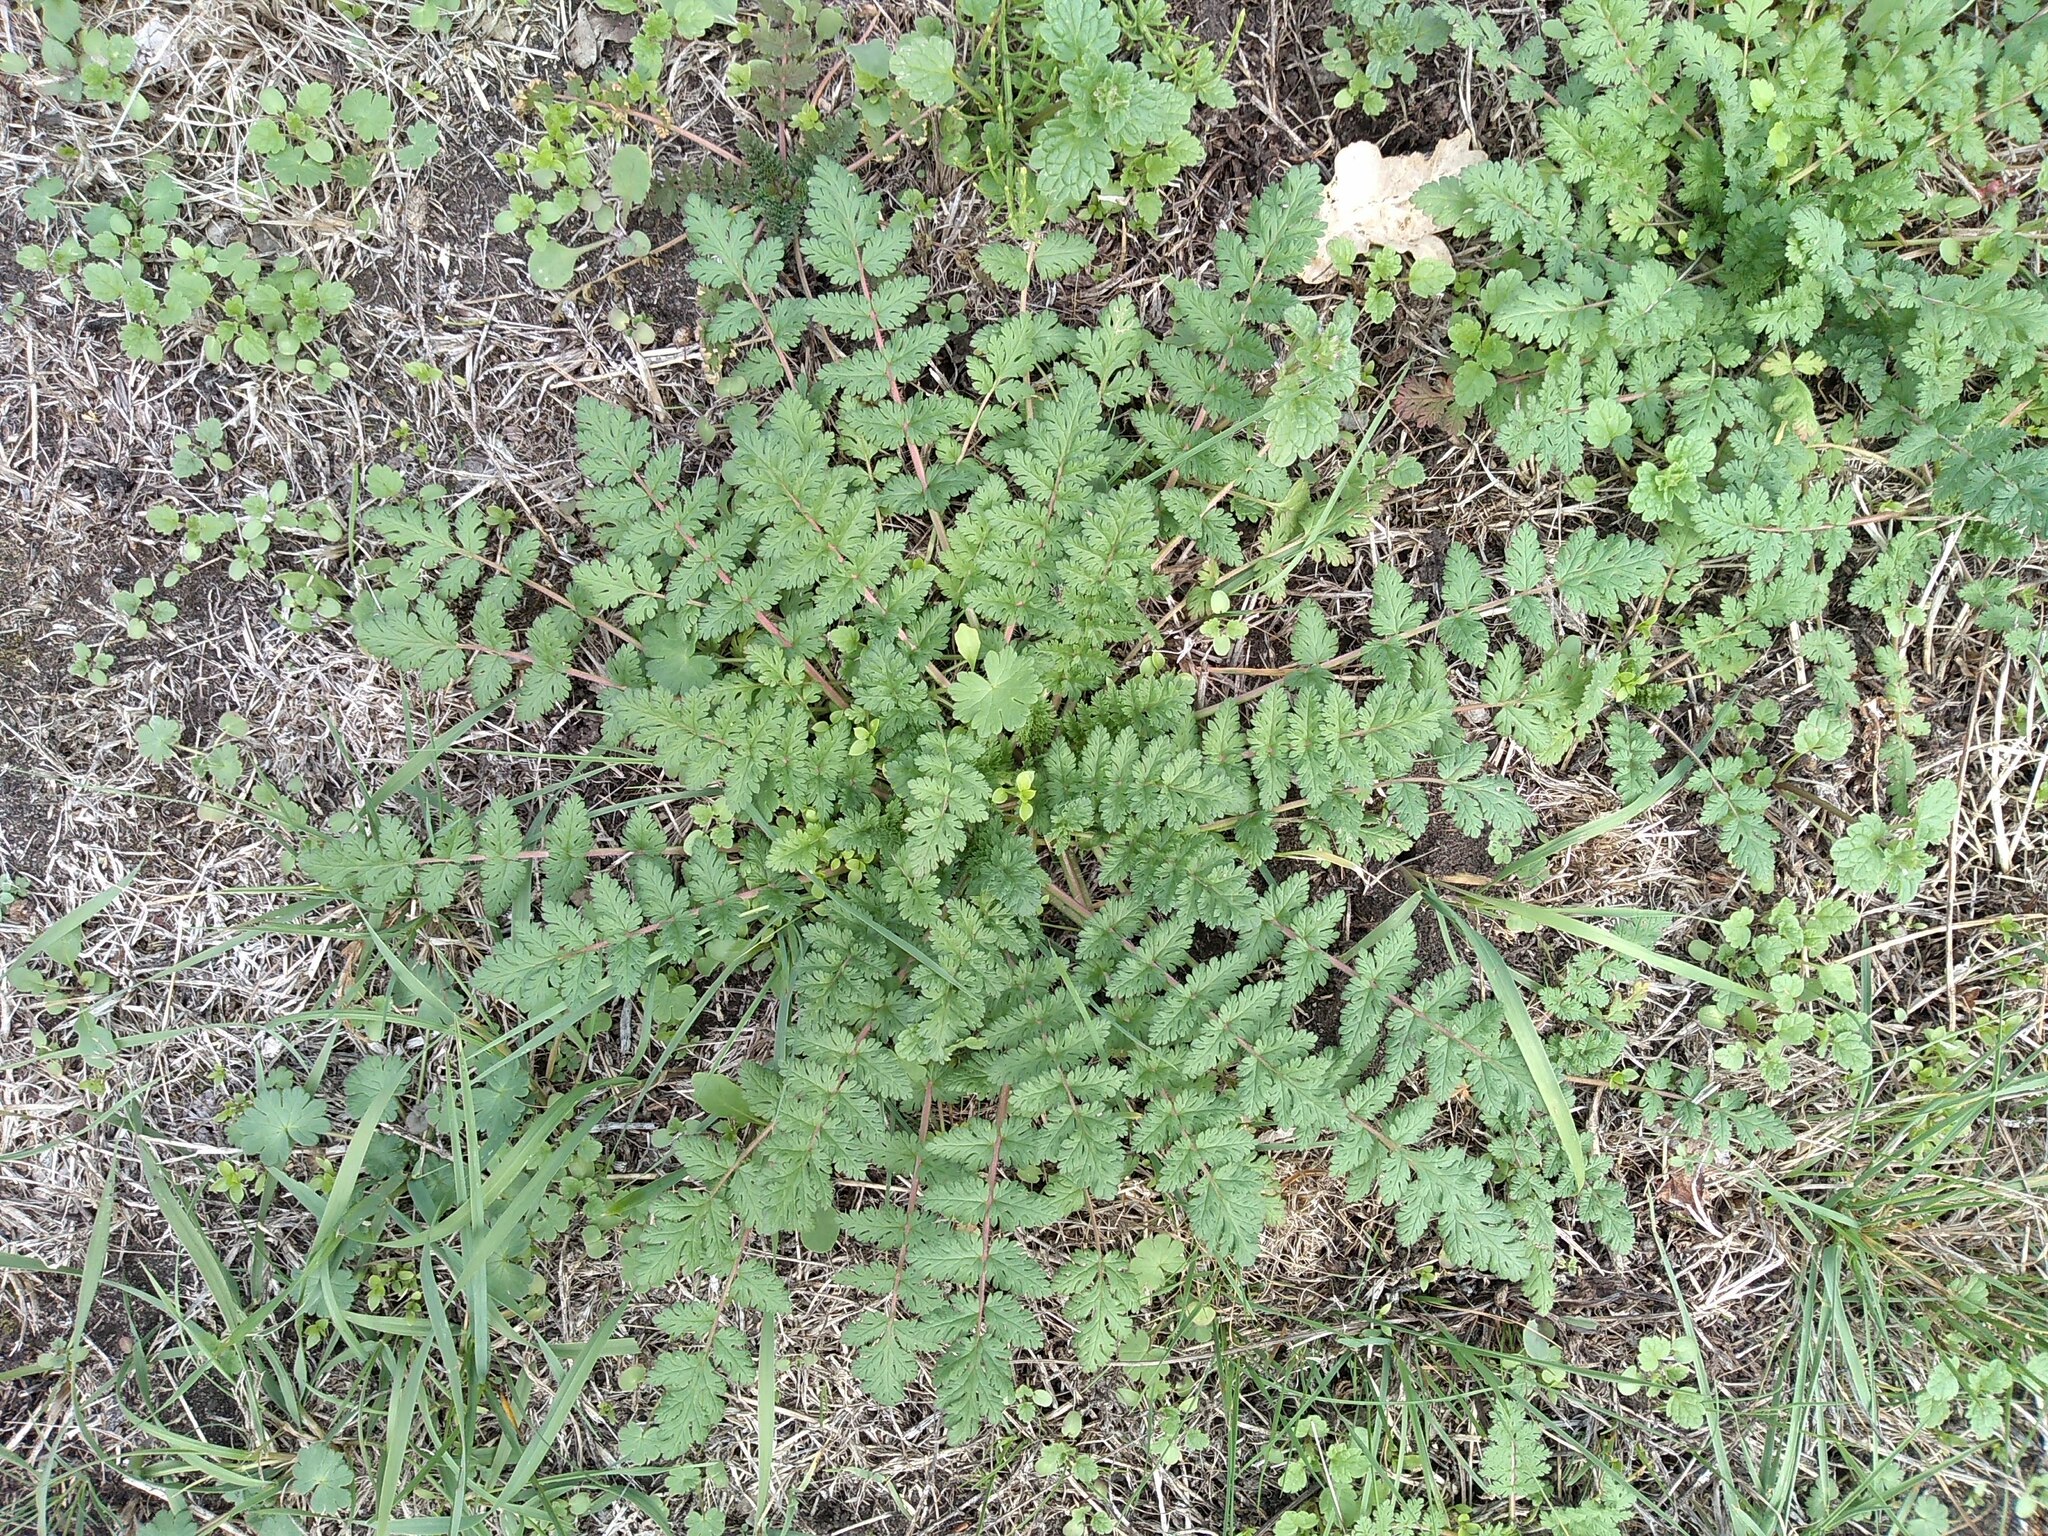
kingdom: Plantae
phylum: Tracheophyta
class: Magnoliopsida
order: Geraniales
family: Geraniaceae
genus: Erodium
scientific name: Erodium cicutarium
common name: Common stork's-bill
